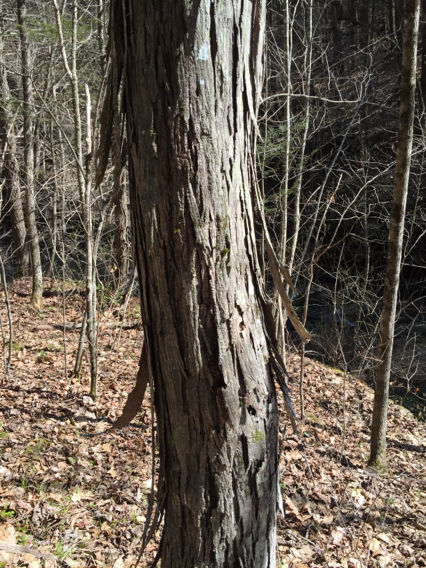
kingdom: Plantae
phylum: Tracheophyta
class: Magnoliopsida
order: Fagales
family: Juglandaceae
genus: Carya
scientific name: Carya ovata
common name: Shagbark hickory
